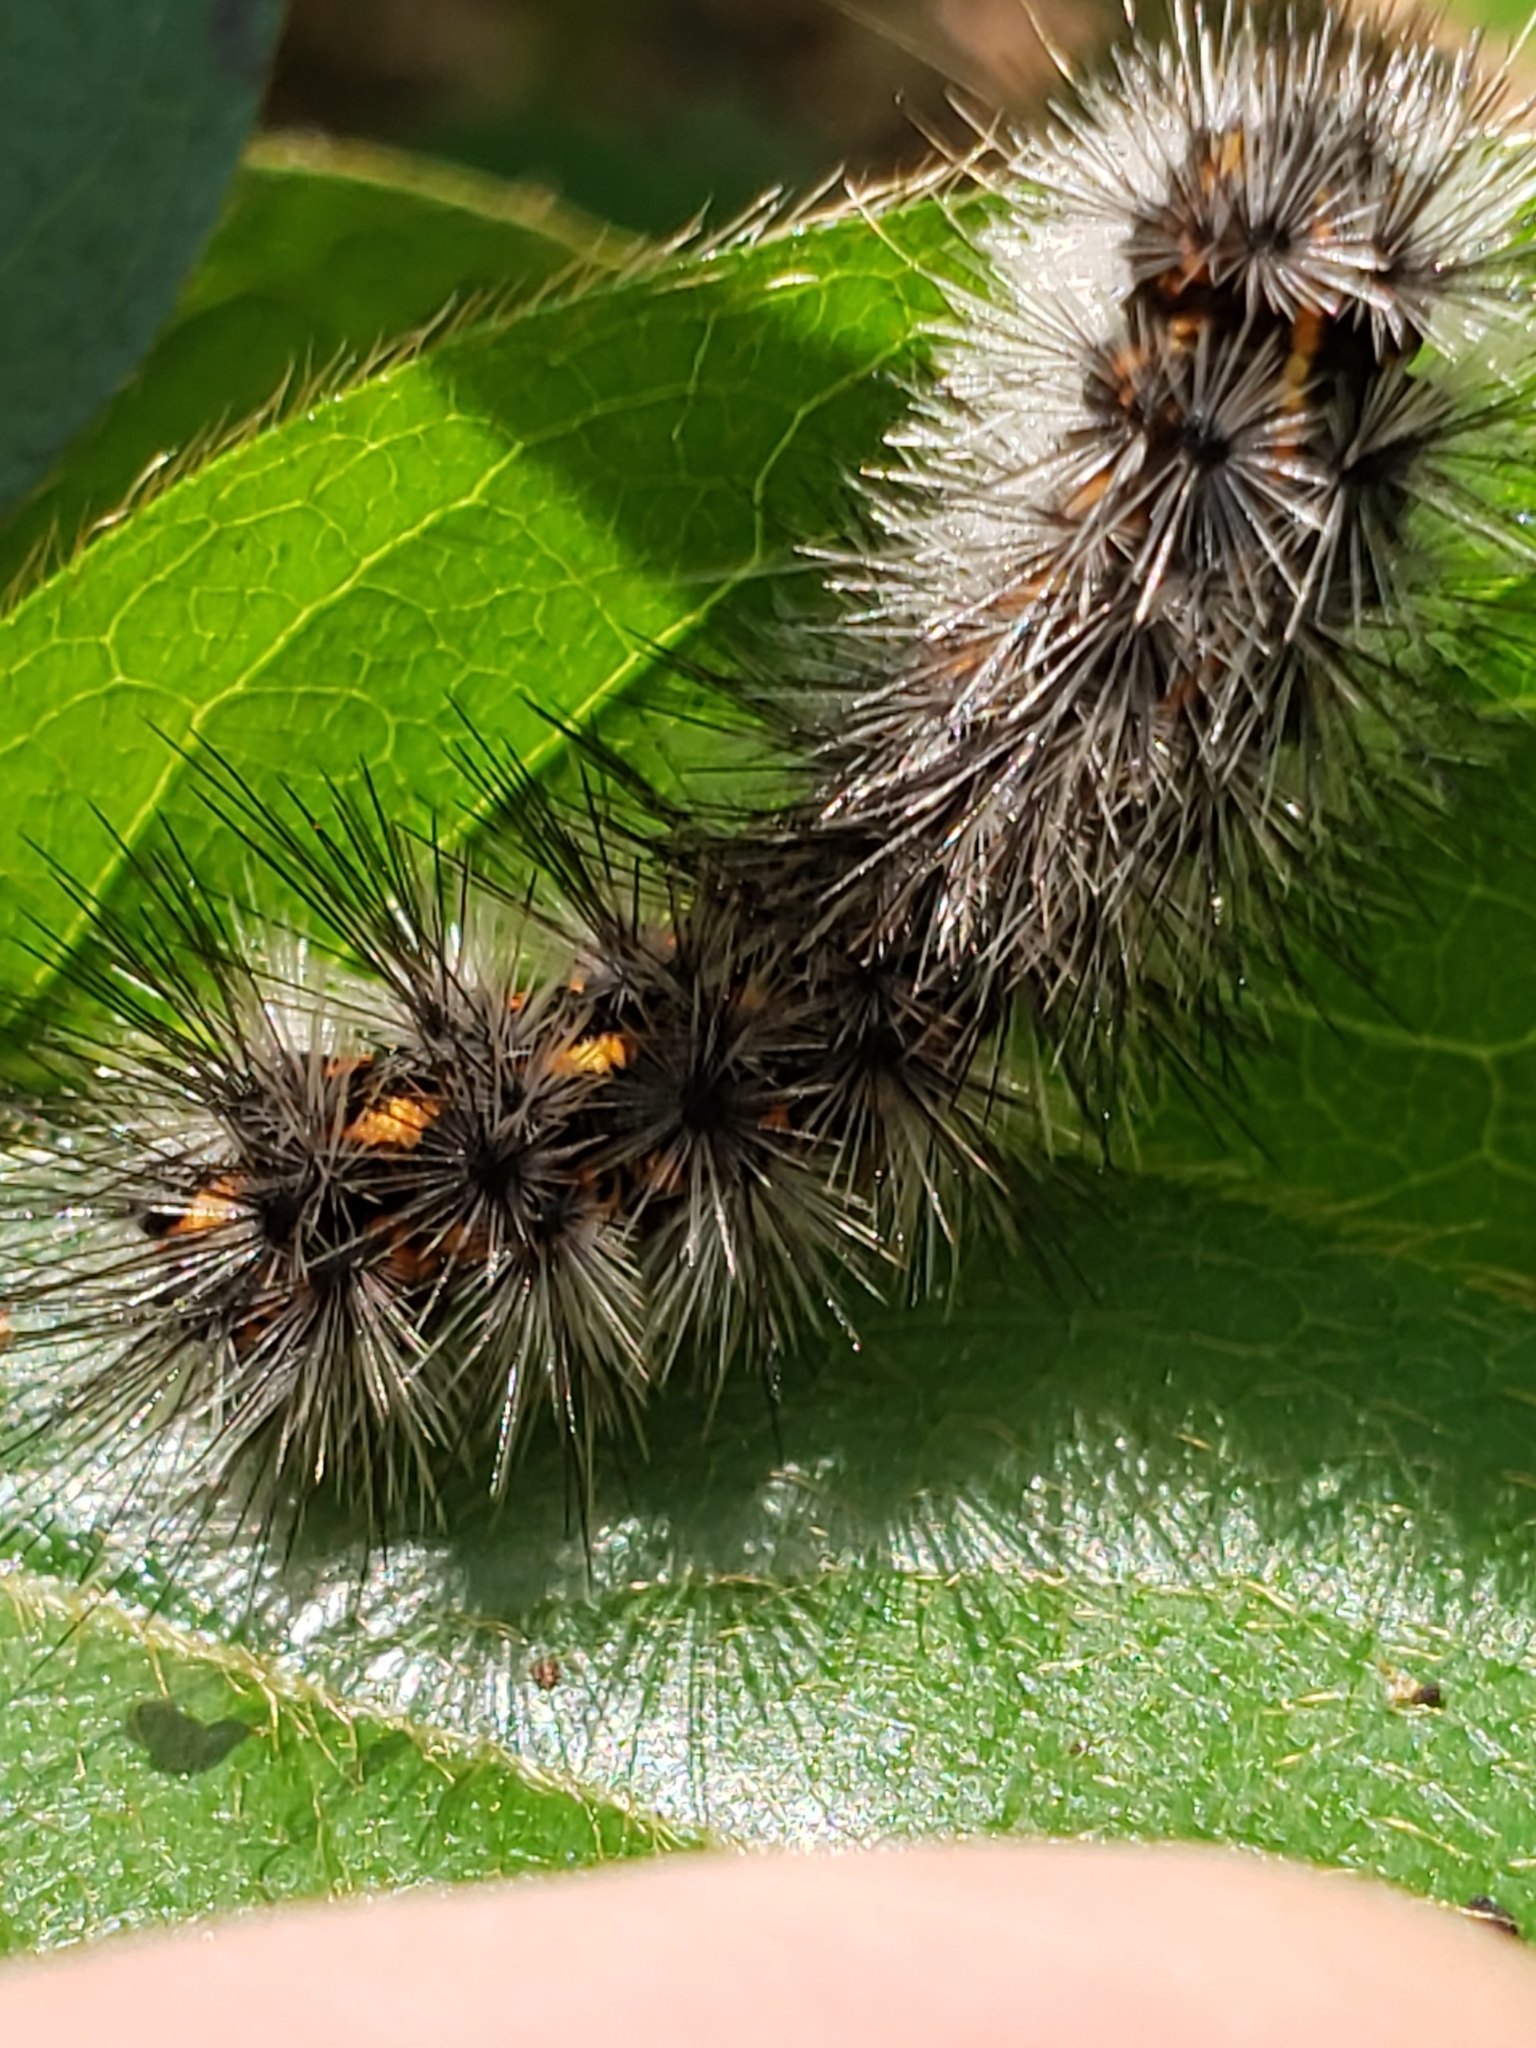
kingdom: Animalia
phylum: Arthropoda
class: Insecta
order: Lepidoptera
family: Erebidae
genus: Spilosoma
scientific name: Spilosoma dubia
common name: Dubious tiger moth
